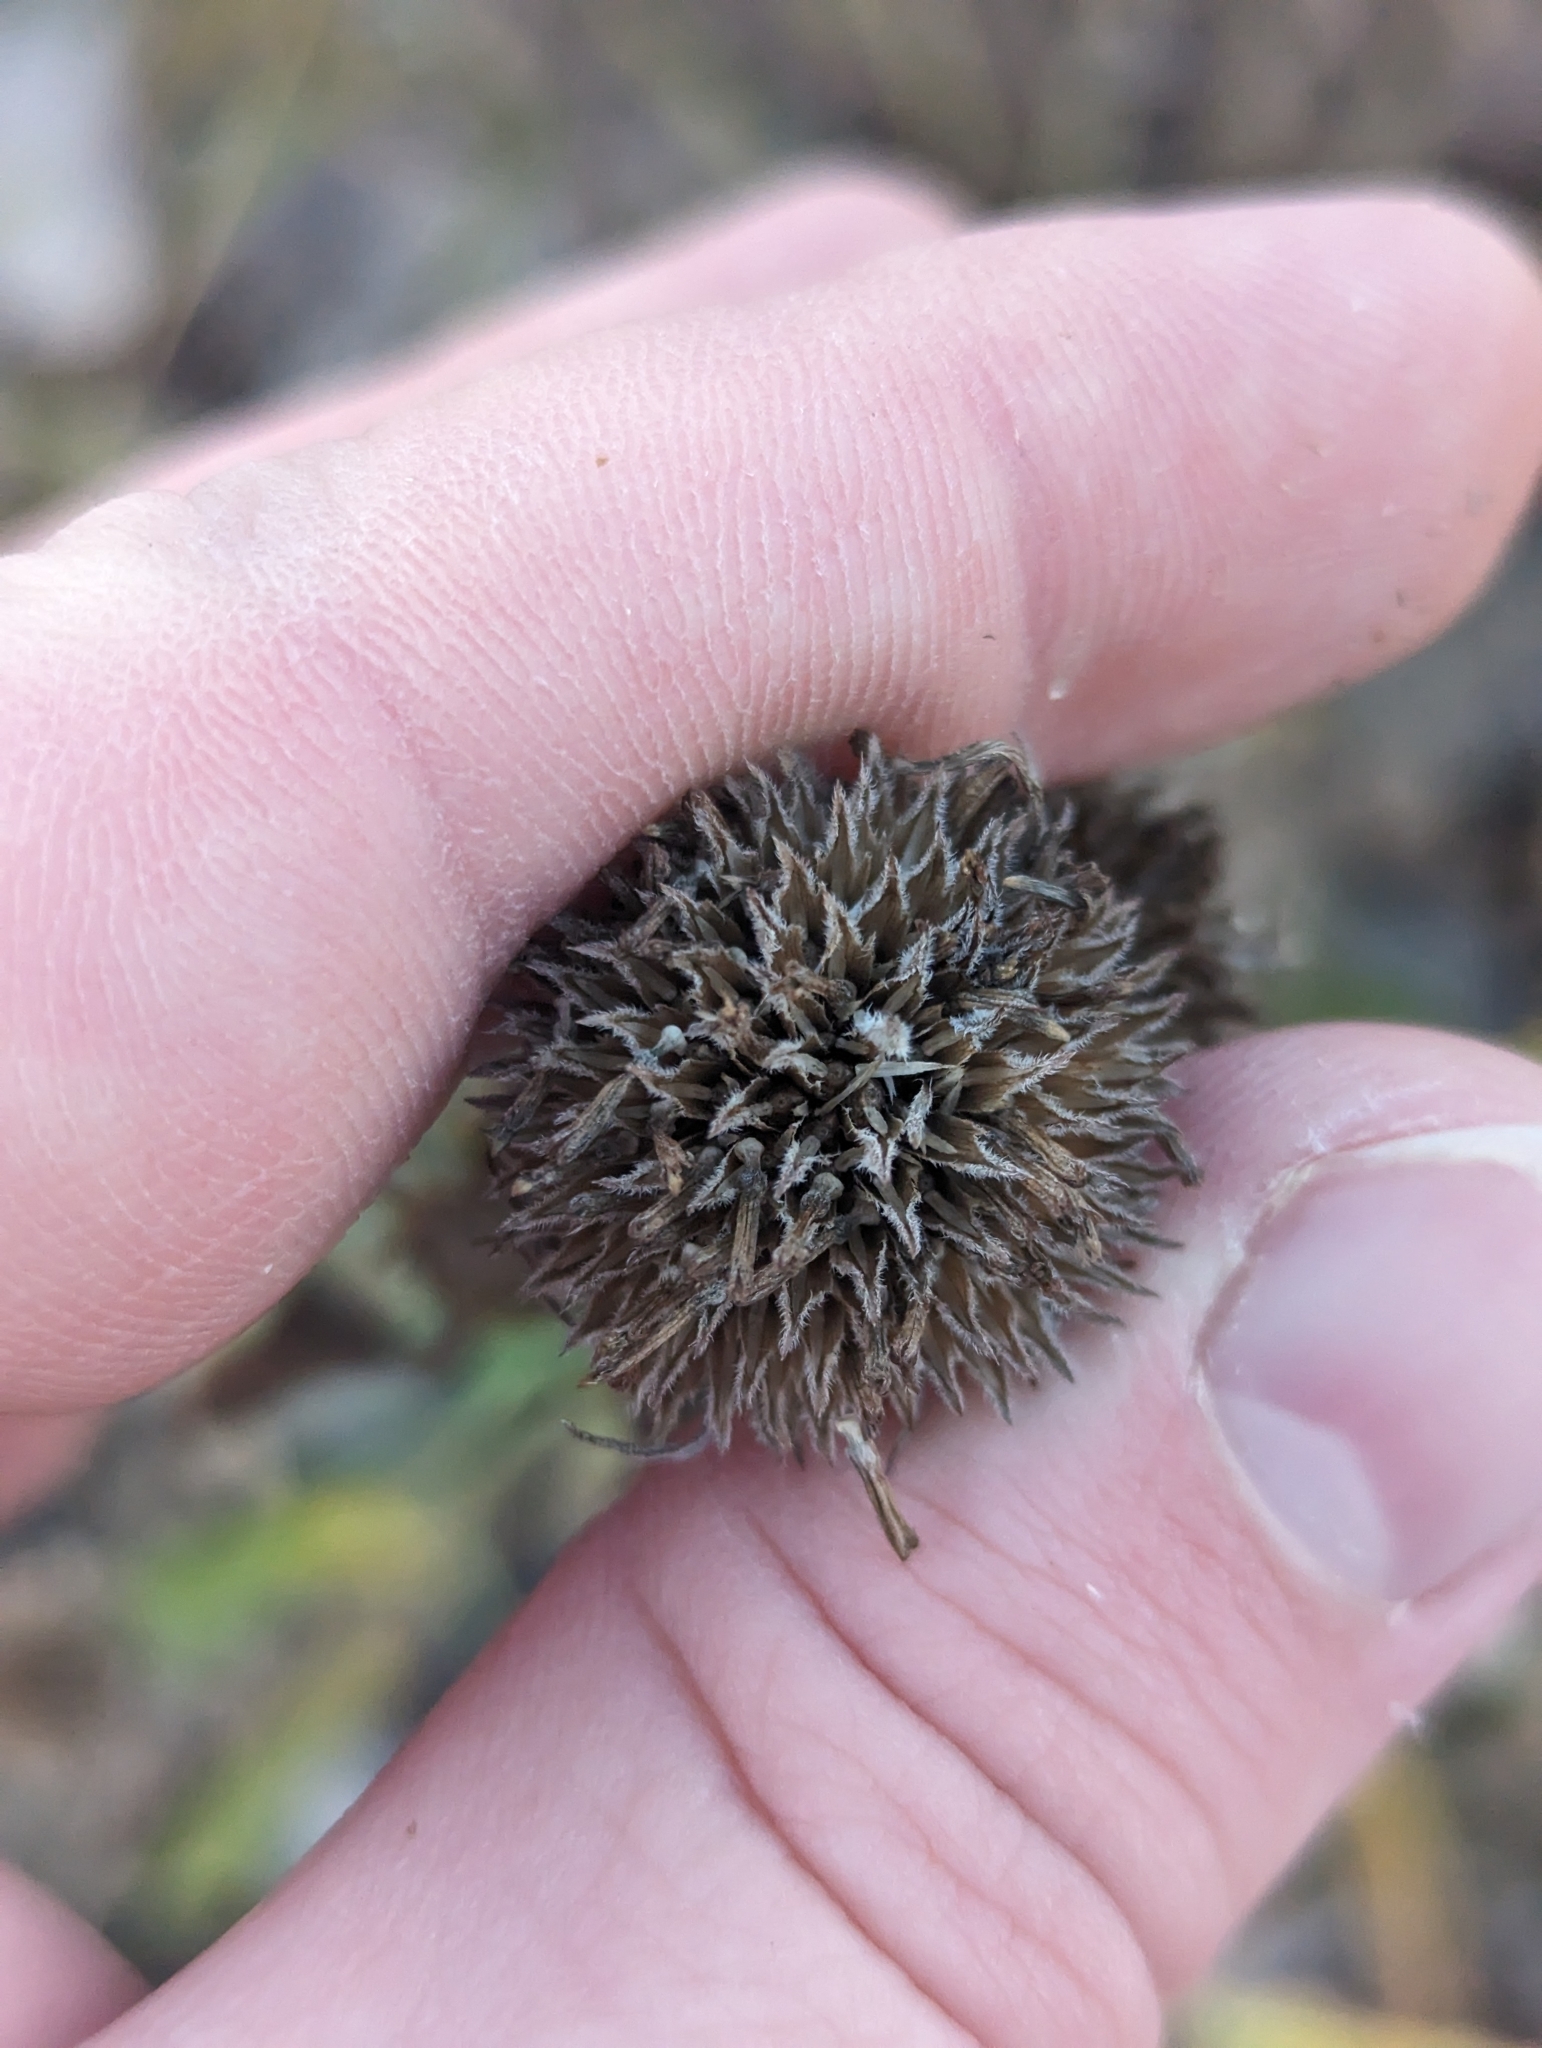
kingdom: Plantae
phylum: Tracheophyta
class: Magnoliopsida
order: Asterales
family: Asteraceae
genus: Helianthus
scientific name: Helianthus maximiliani
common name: Maximilian's sunflower
